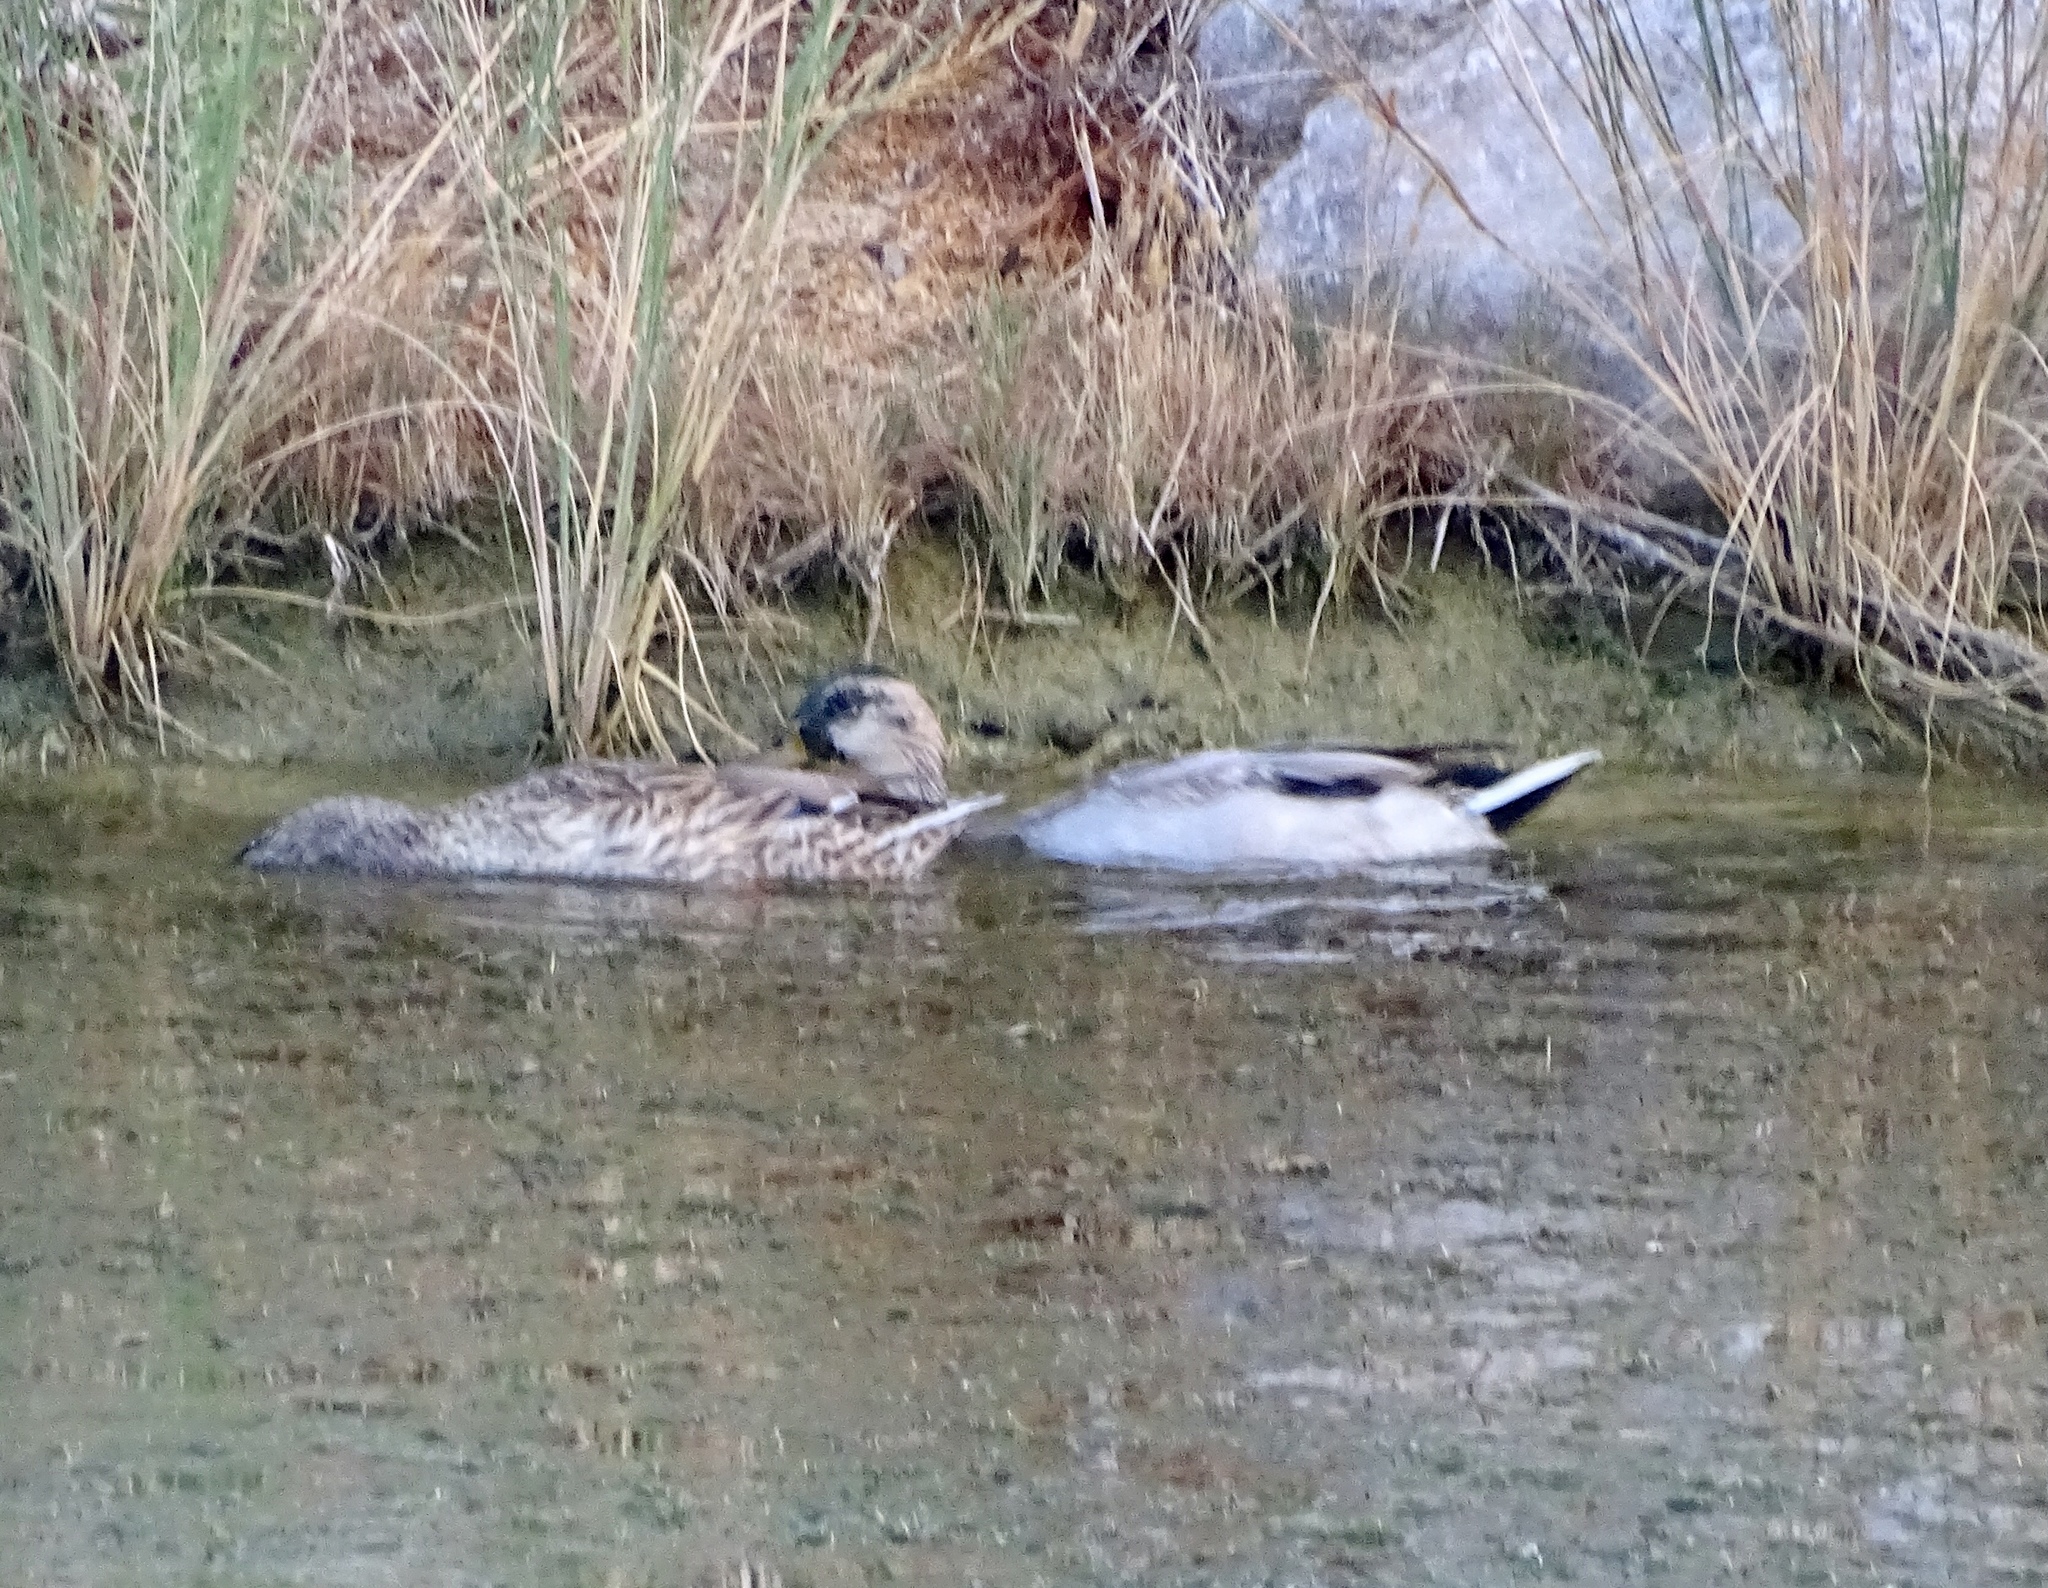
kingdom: Animalia
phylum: Chordata
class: Aves
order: Anseriformes
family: Anatidae
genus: Anas
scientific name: Anas platyrhynchos
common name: Mallard
